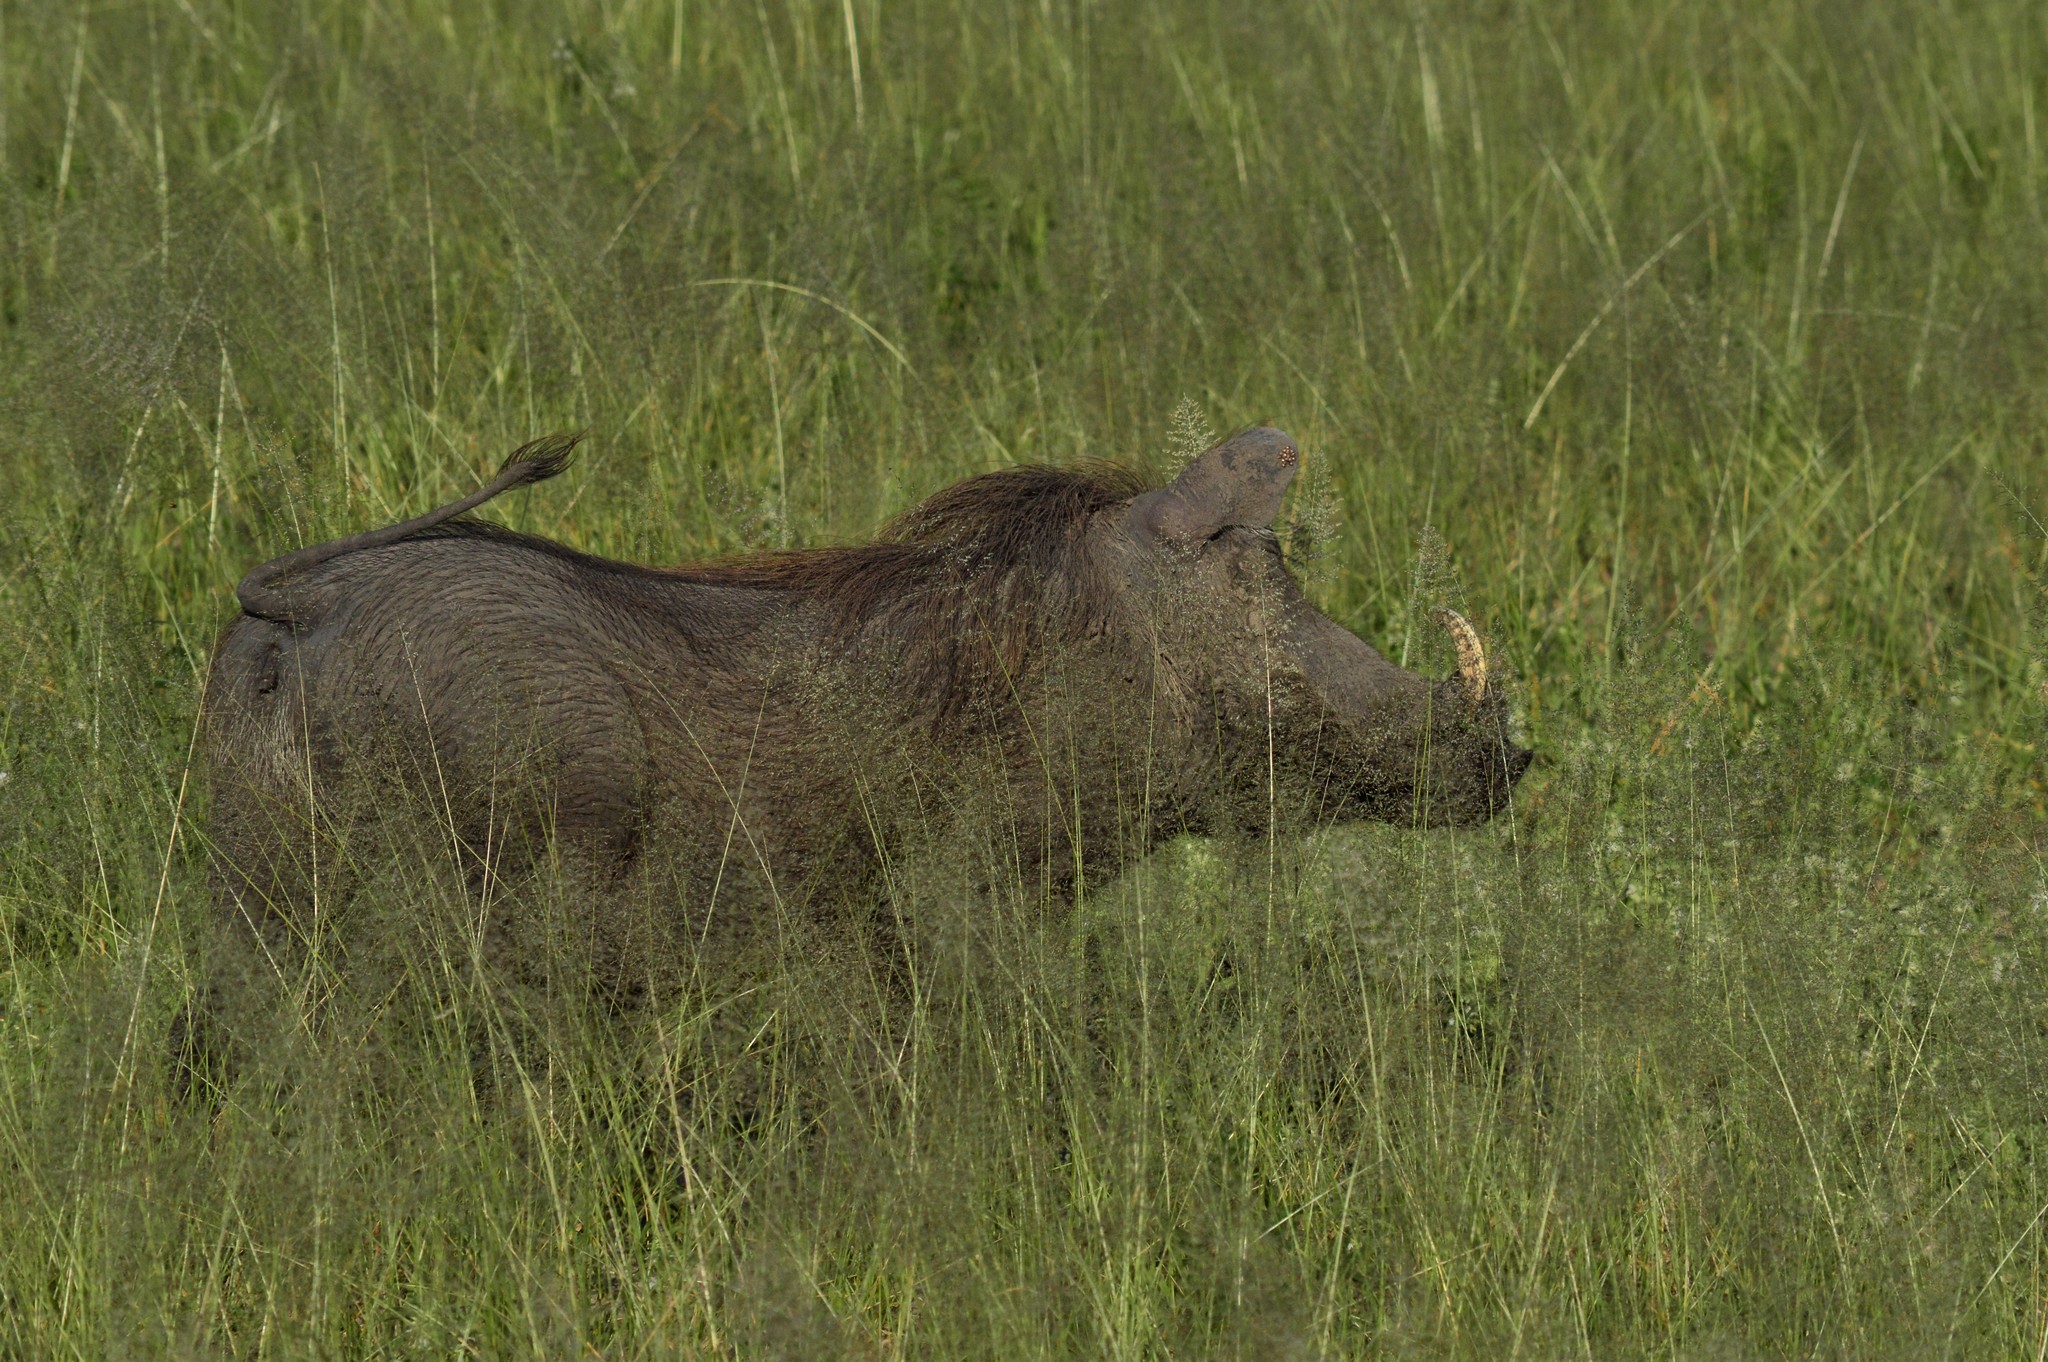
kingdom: Animalia
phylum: Chordata
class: Mammalia
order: Artiodactyla
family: Suidae
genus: Phacochoerus
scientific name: Phacochoerus africanus
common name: Common warthog
